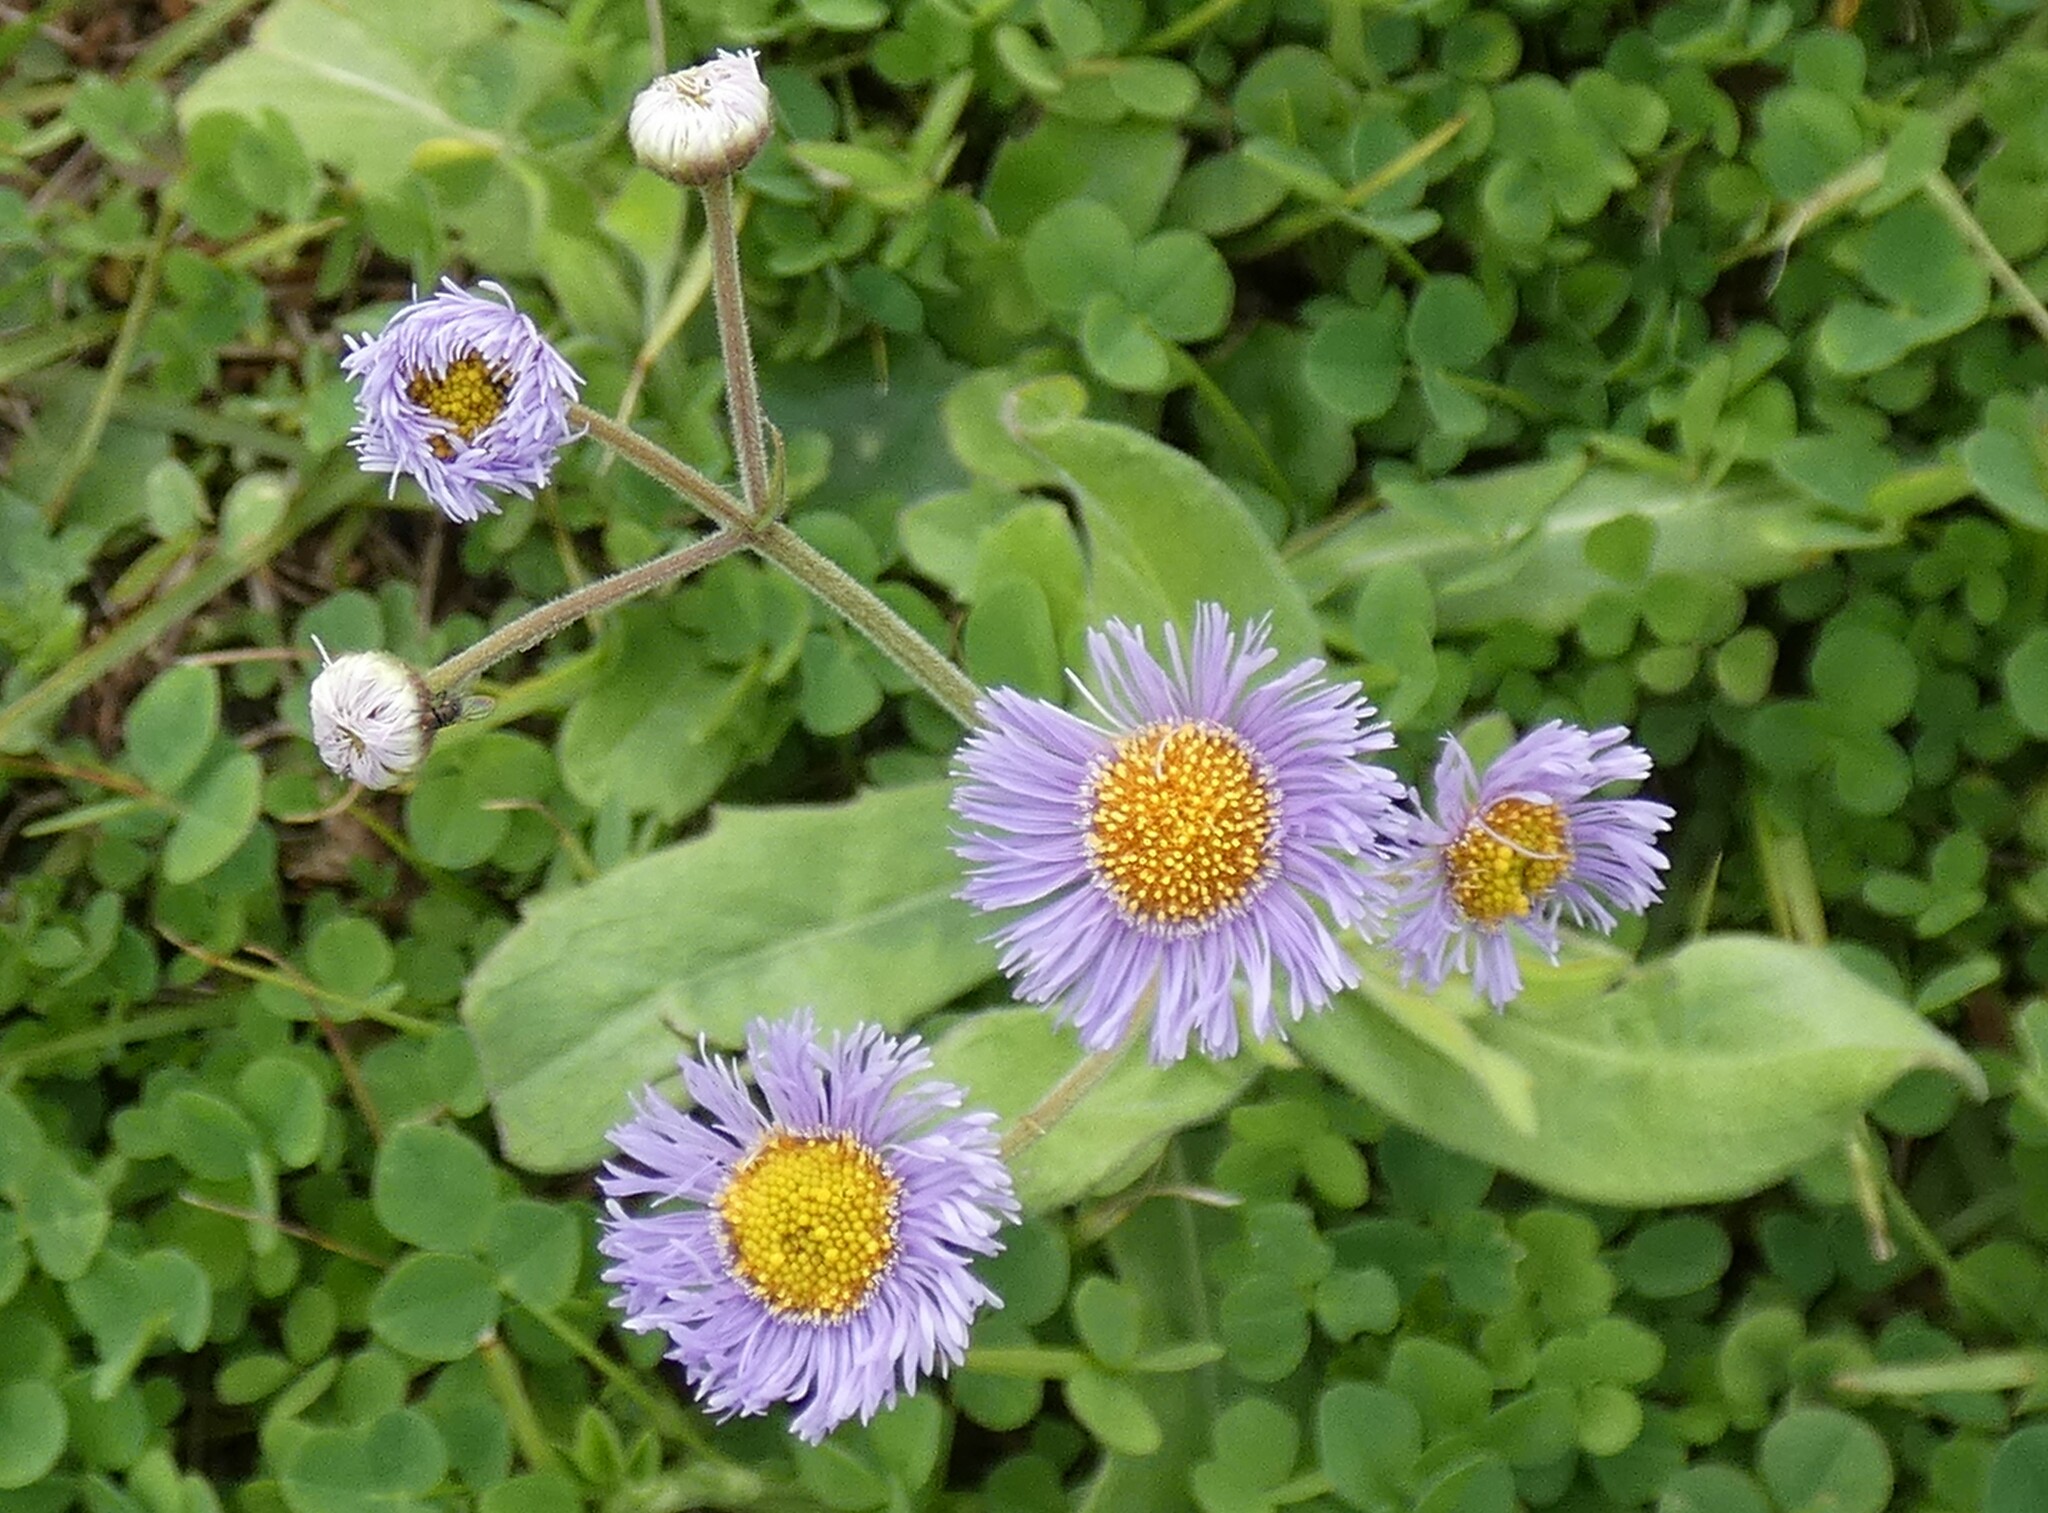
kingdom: Plantae
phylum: Tracheophyta
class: Magnoliopsida
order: Asterales
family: Asteraceae
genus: Erigeron
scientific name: Erigeron quercifolius
